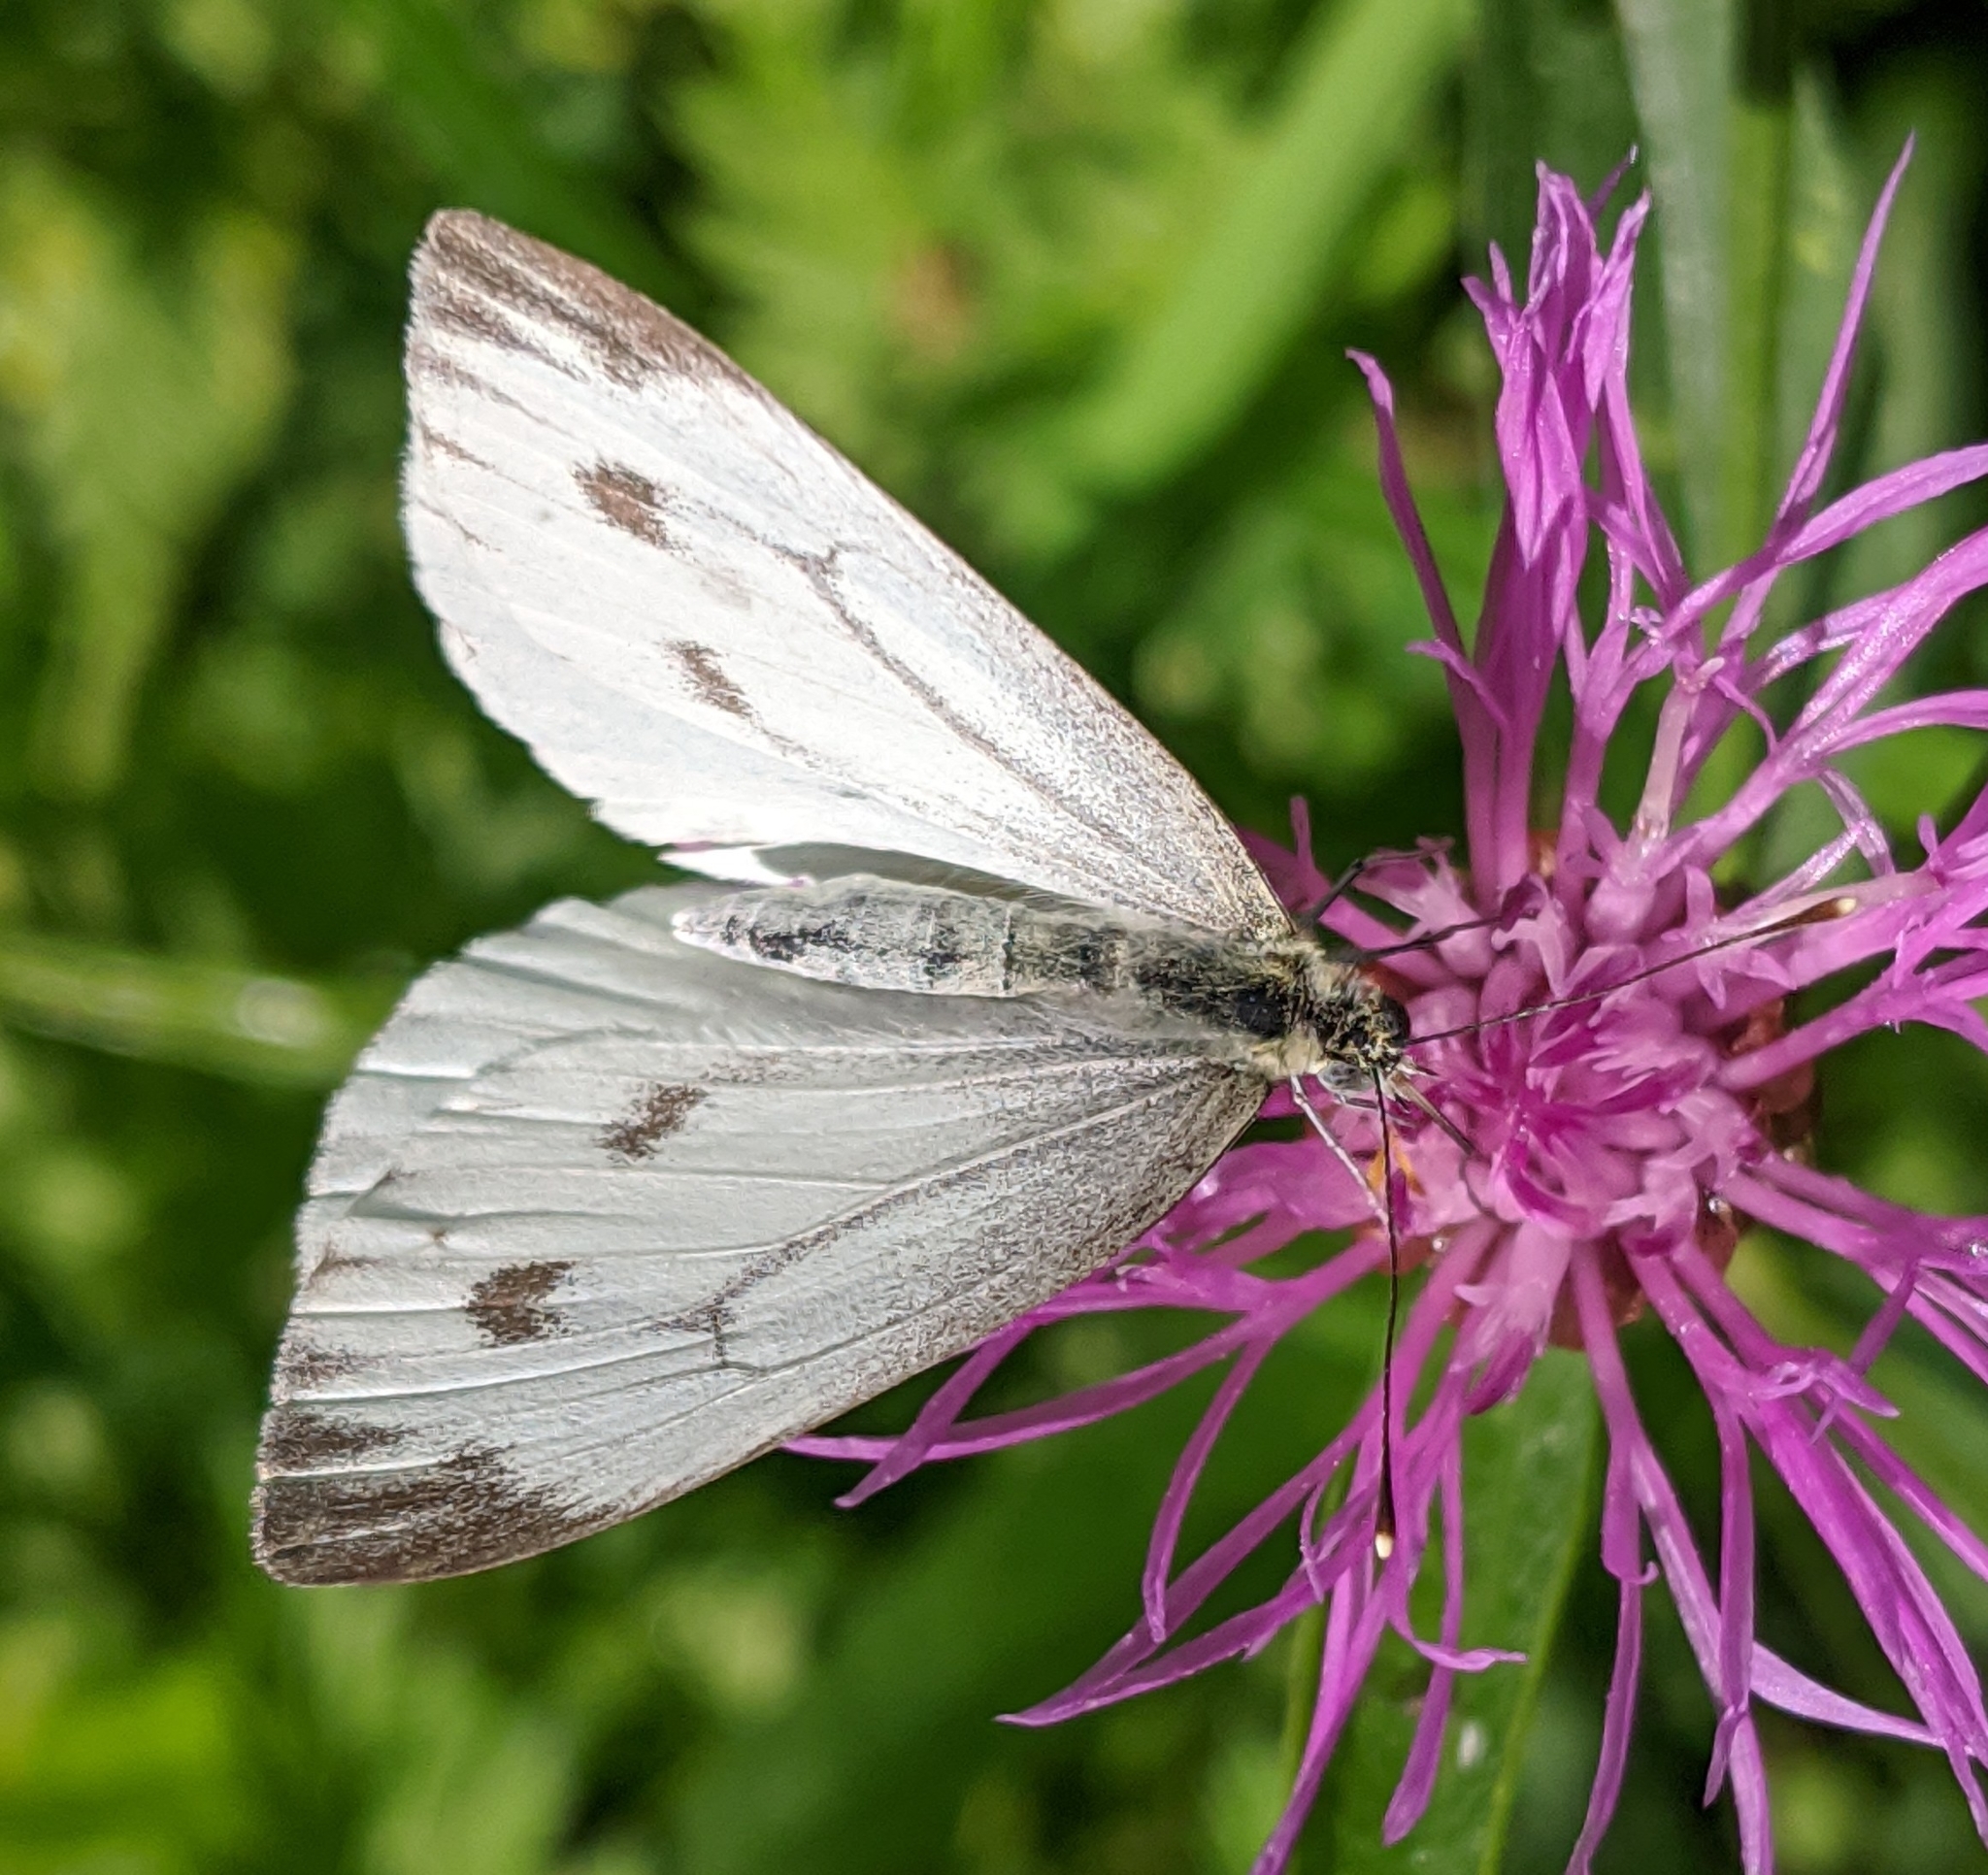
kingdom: Animalia
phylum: Arthropoda
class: Insecta
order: Lepidoptera
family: Pieridae
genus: Pieris
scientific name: Pieris napi
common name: Green-veined white
